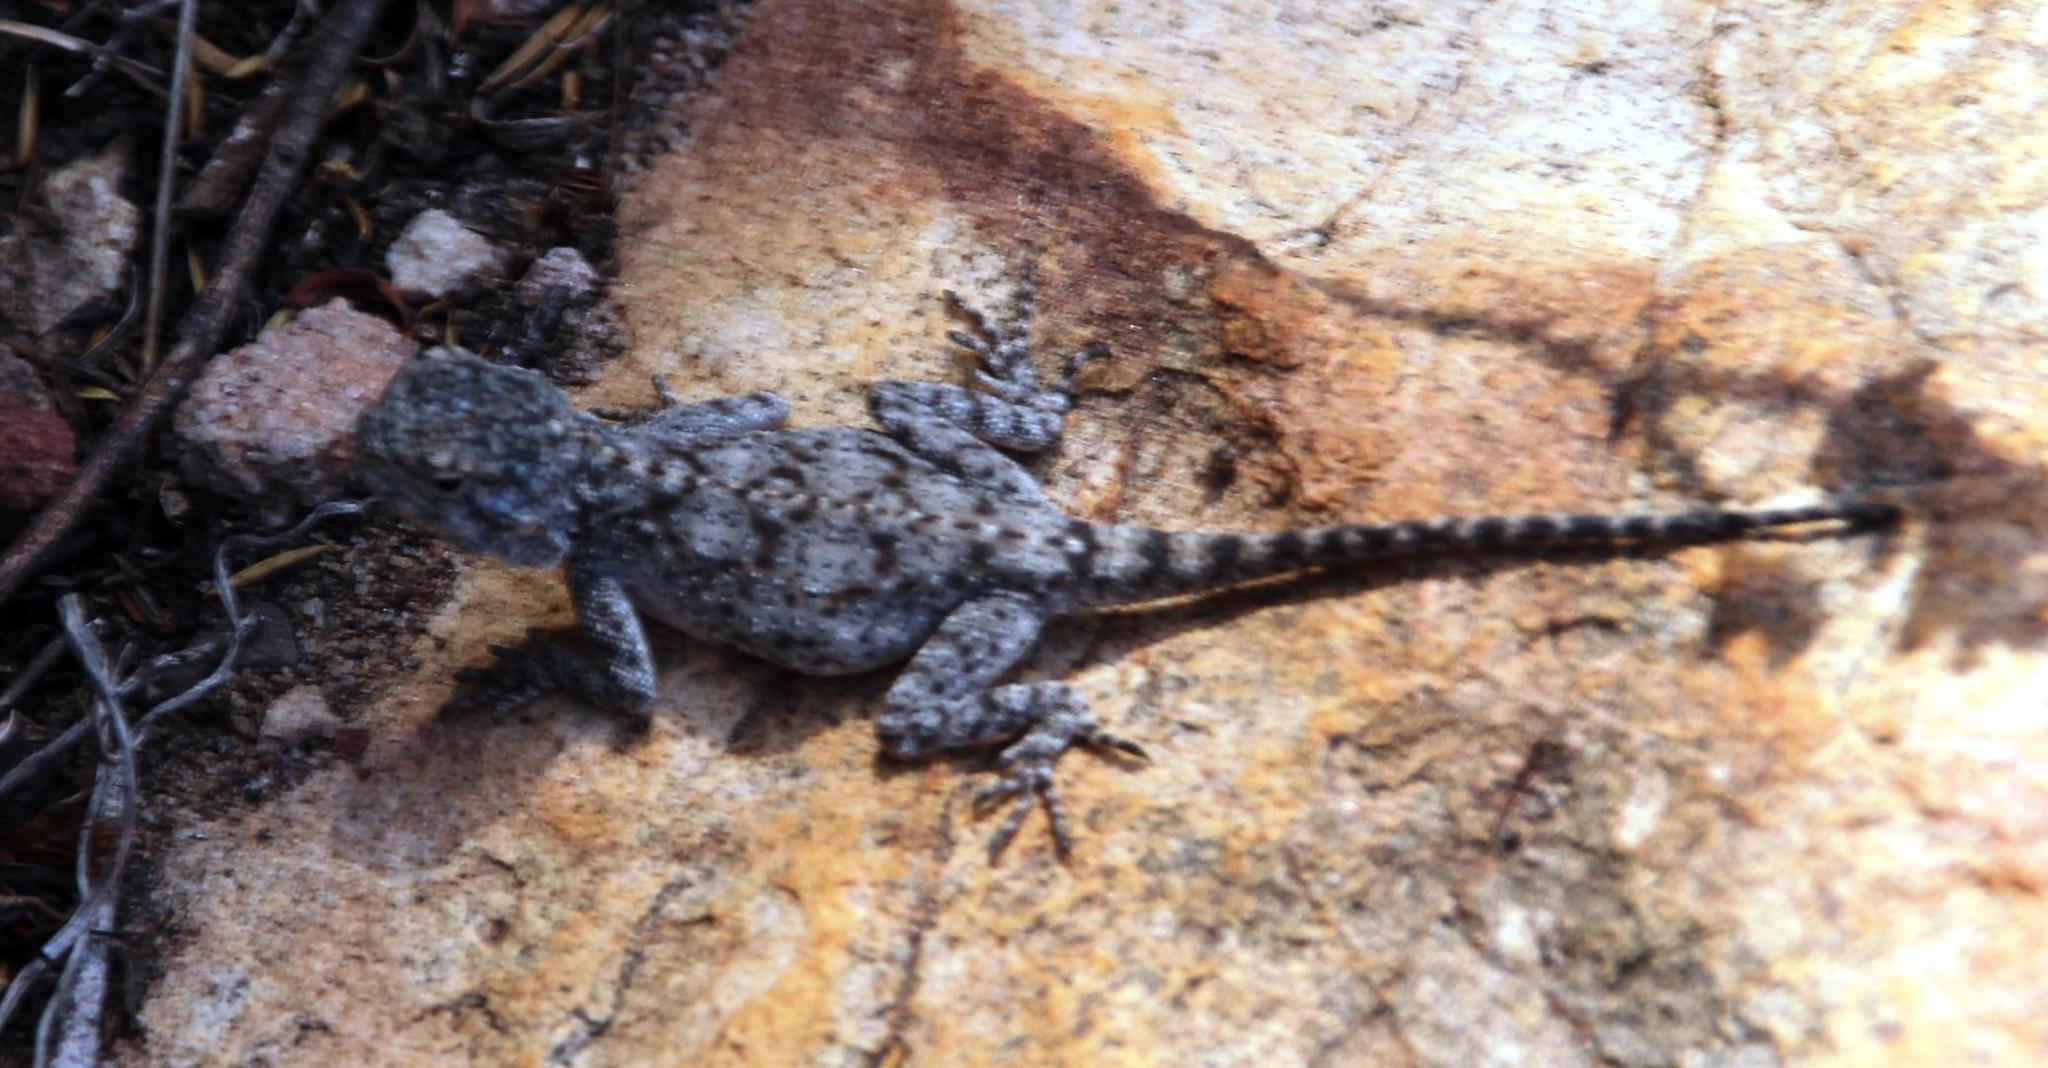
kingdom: Animalia
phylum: Chordata
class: Squamata
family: Agamidae
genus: Agama
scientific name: Agama atra
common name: Southern african rock agama
